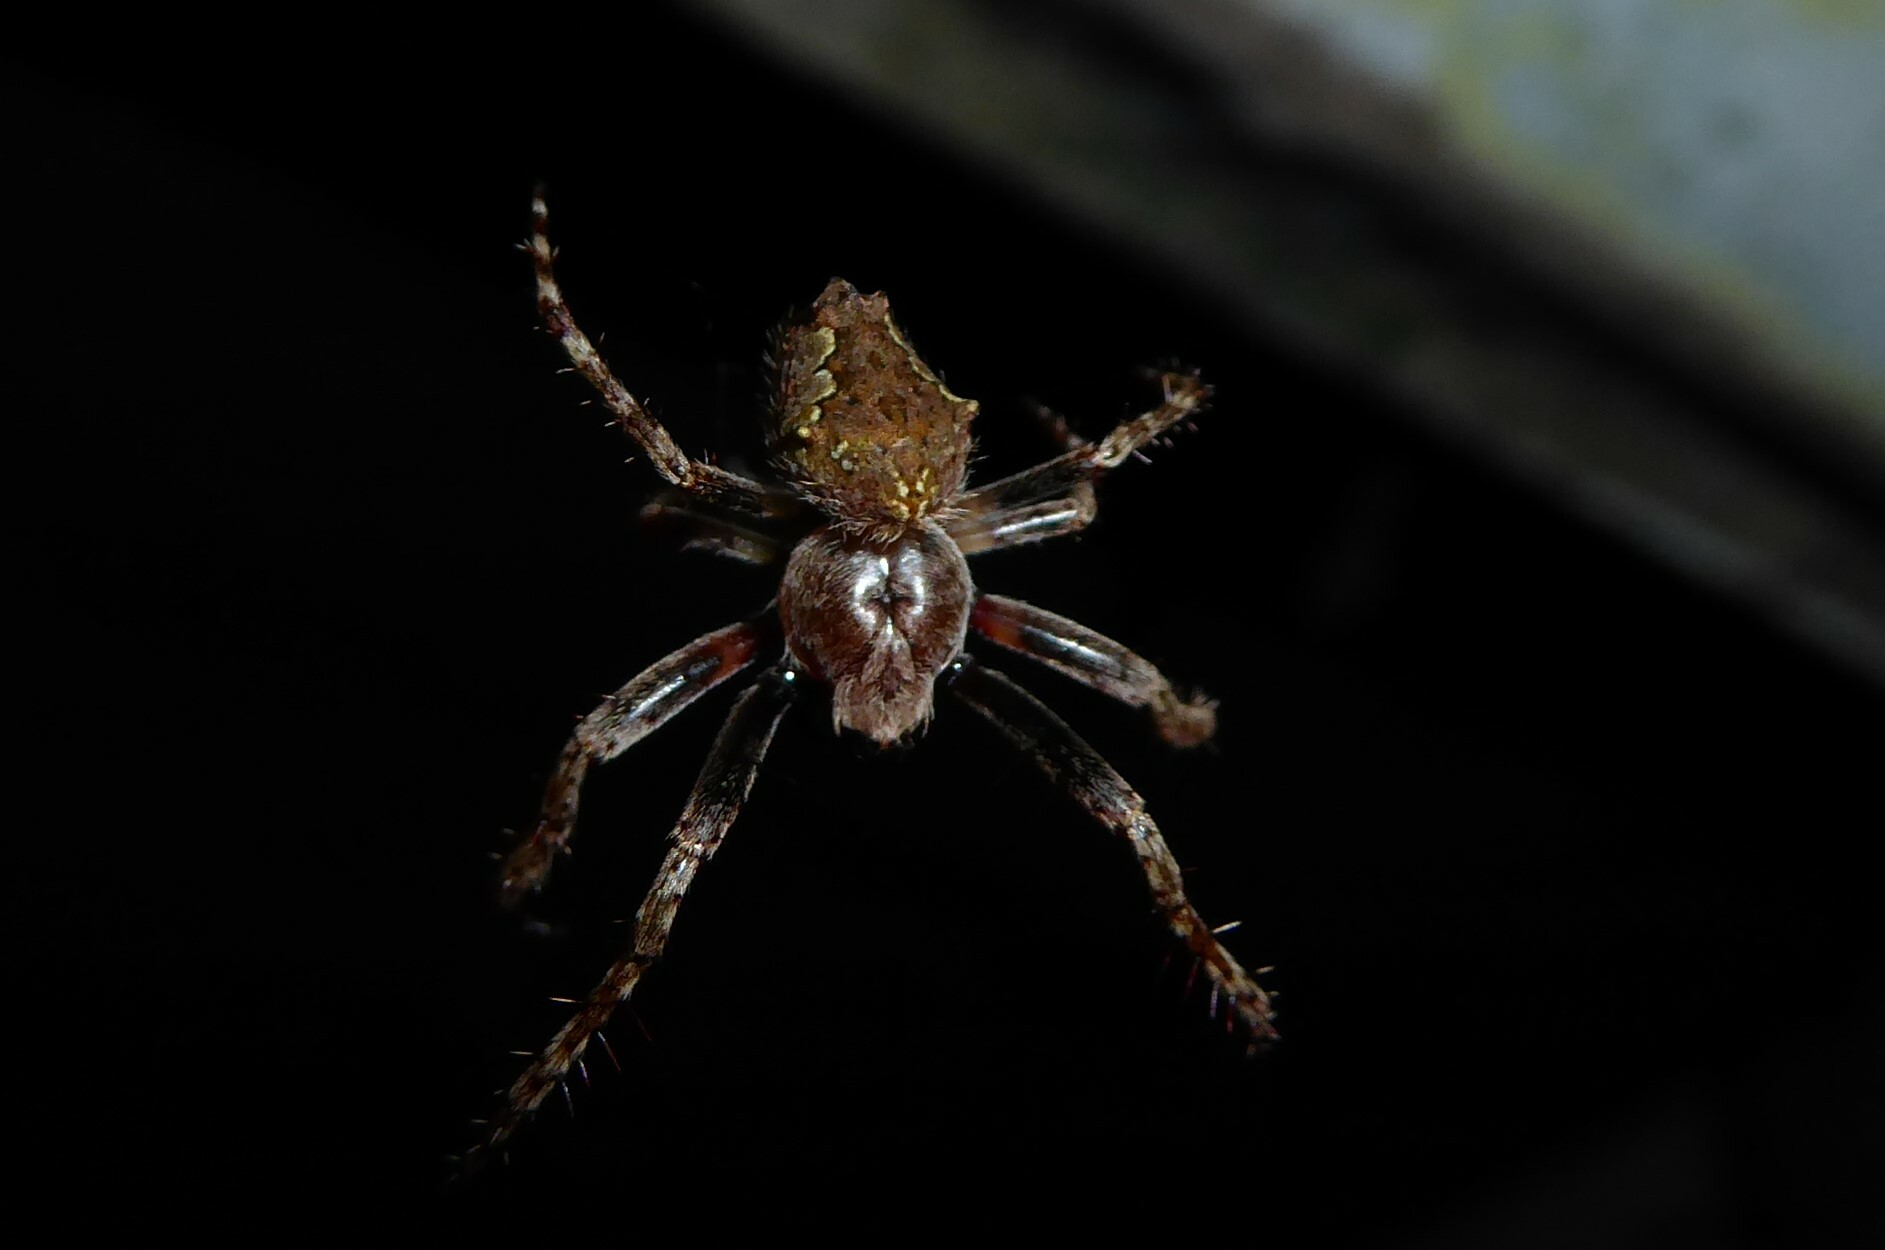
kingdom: Animalia
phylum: Arthropoda
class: Arachnida
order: Araneae
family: Araneidae
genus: Eriophora
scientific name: Eriophora pustulosa
